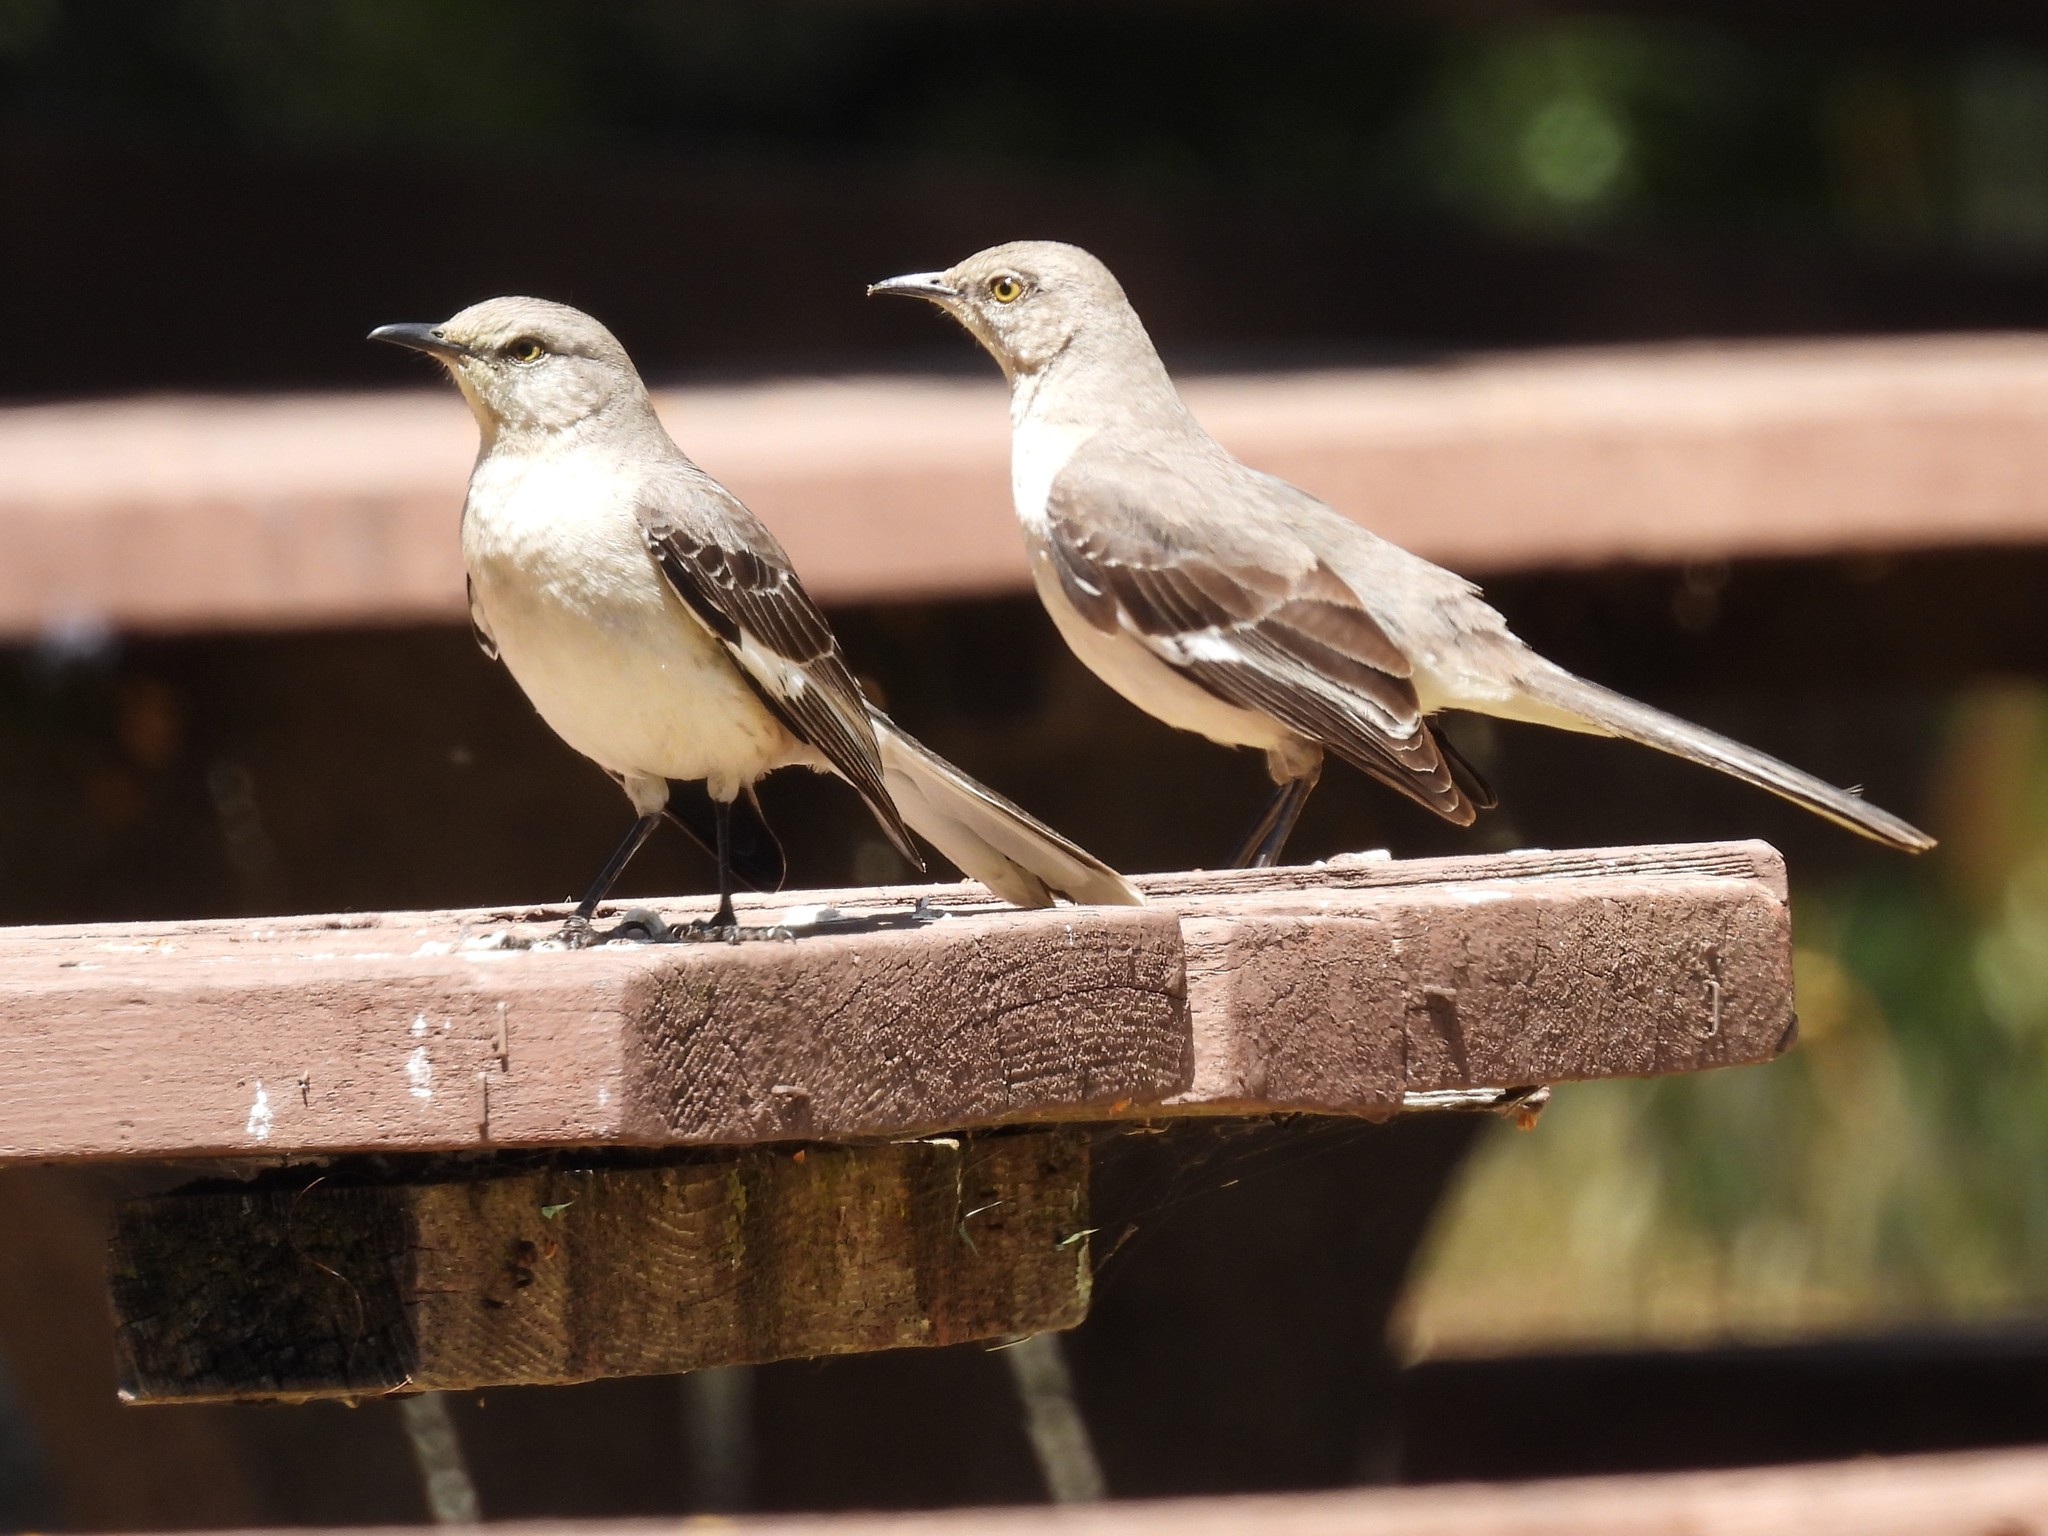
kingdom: Animalia
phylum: Chordata
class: Aves
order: Passeriformes
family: Mimidae
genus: Mimus
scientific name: Mimus polyglottos
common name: Northern mockingbird
